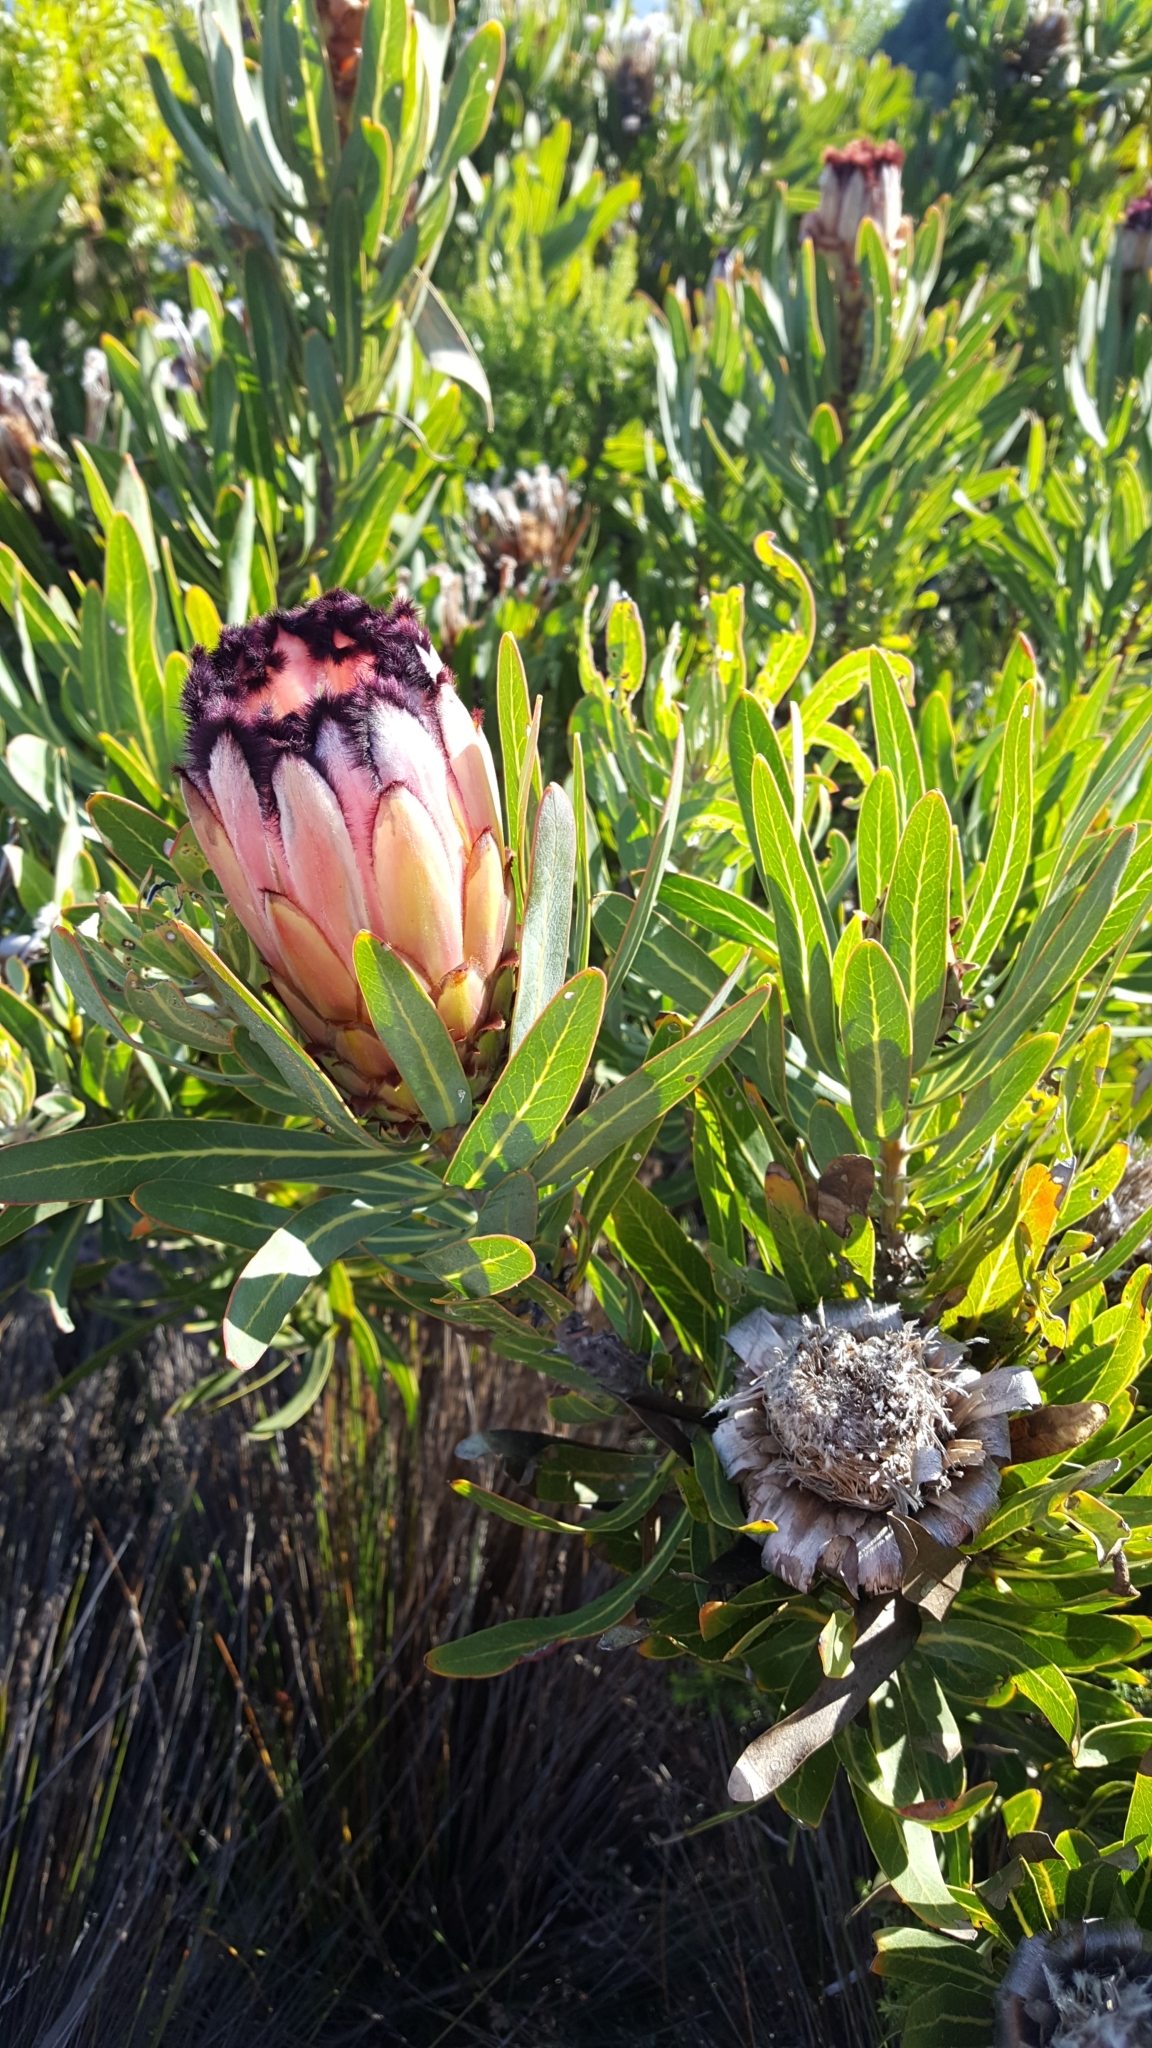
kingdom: Plantae
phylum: Tracheophyta
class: Magnoliopsida
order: Proteales
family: Proteaceae
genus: Protea
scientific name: Protea neriifolia
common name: Blue sugarbush
